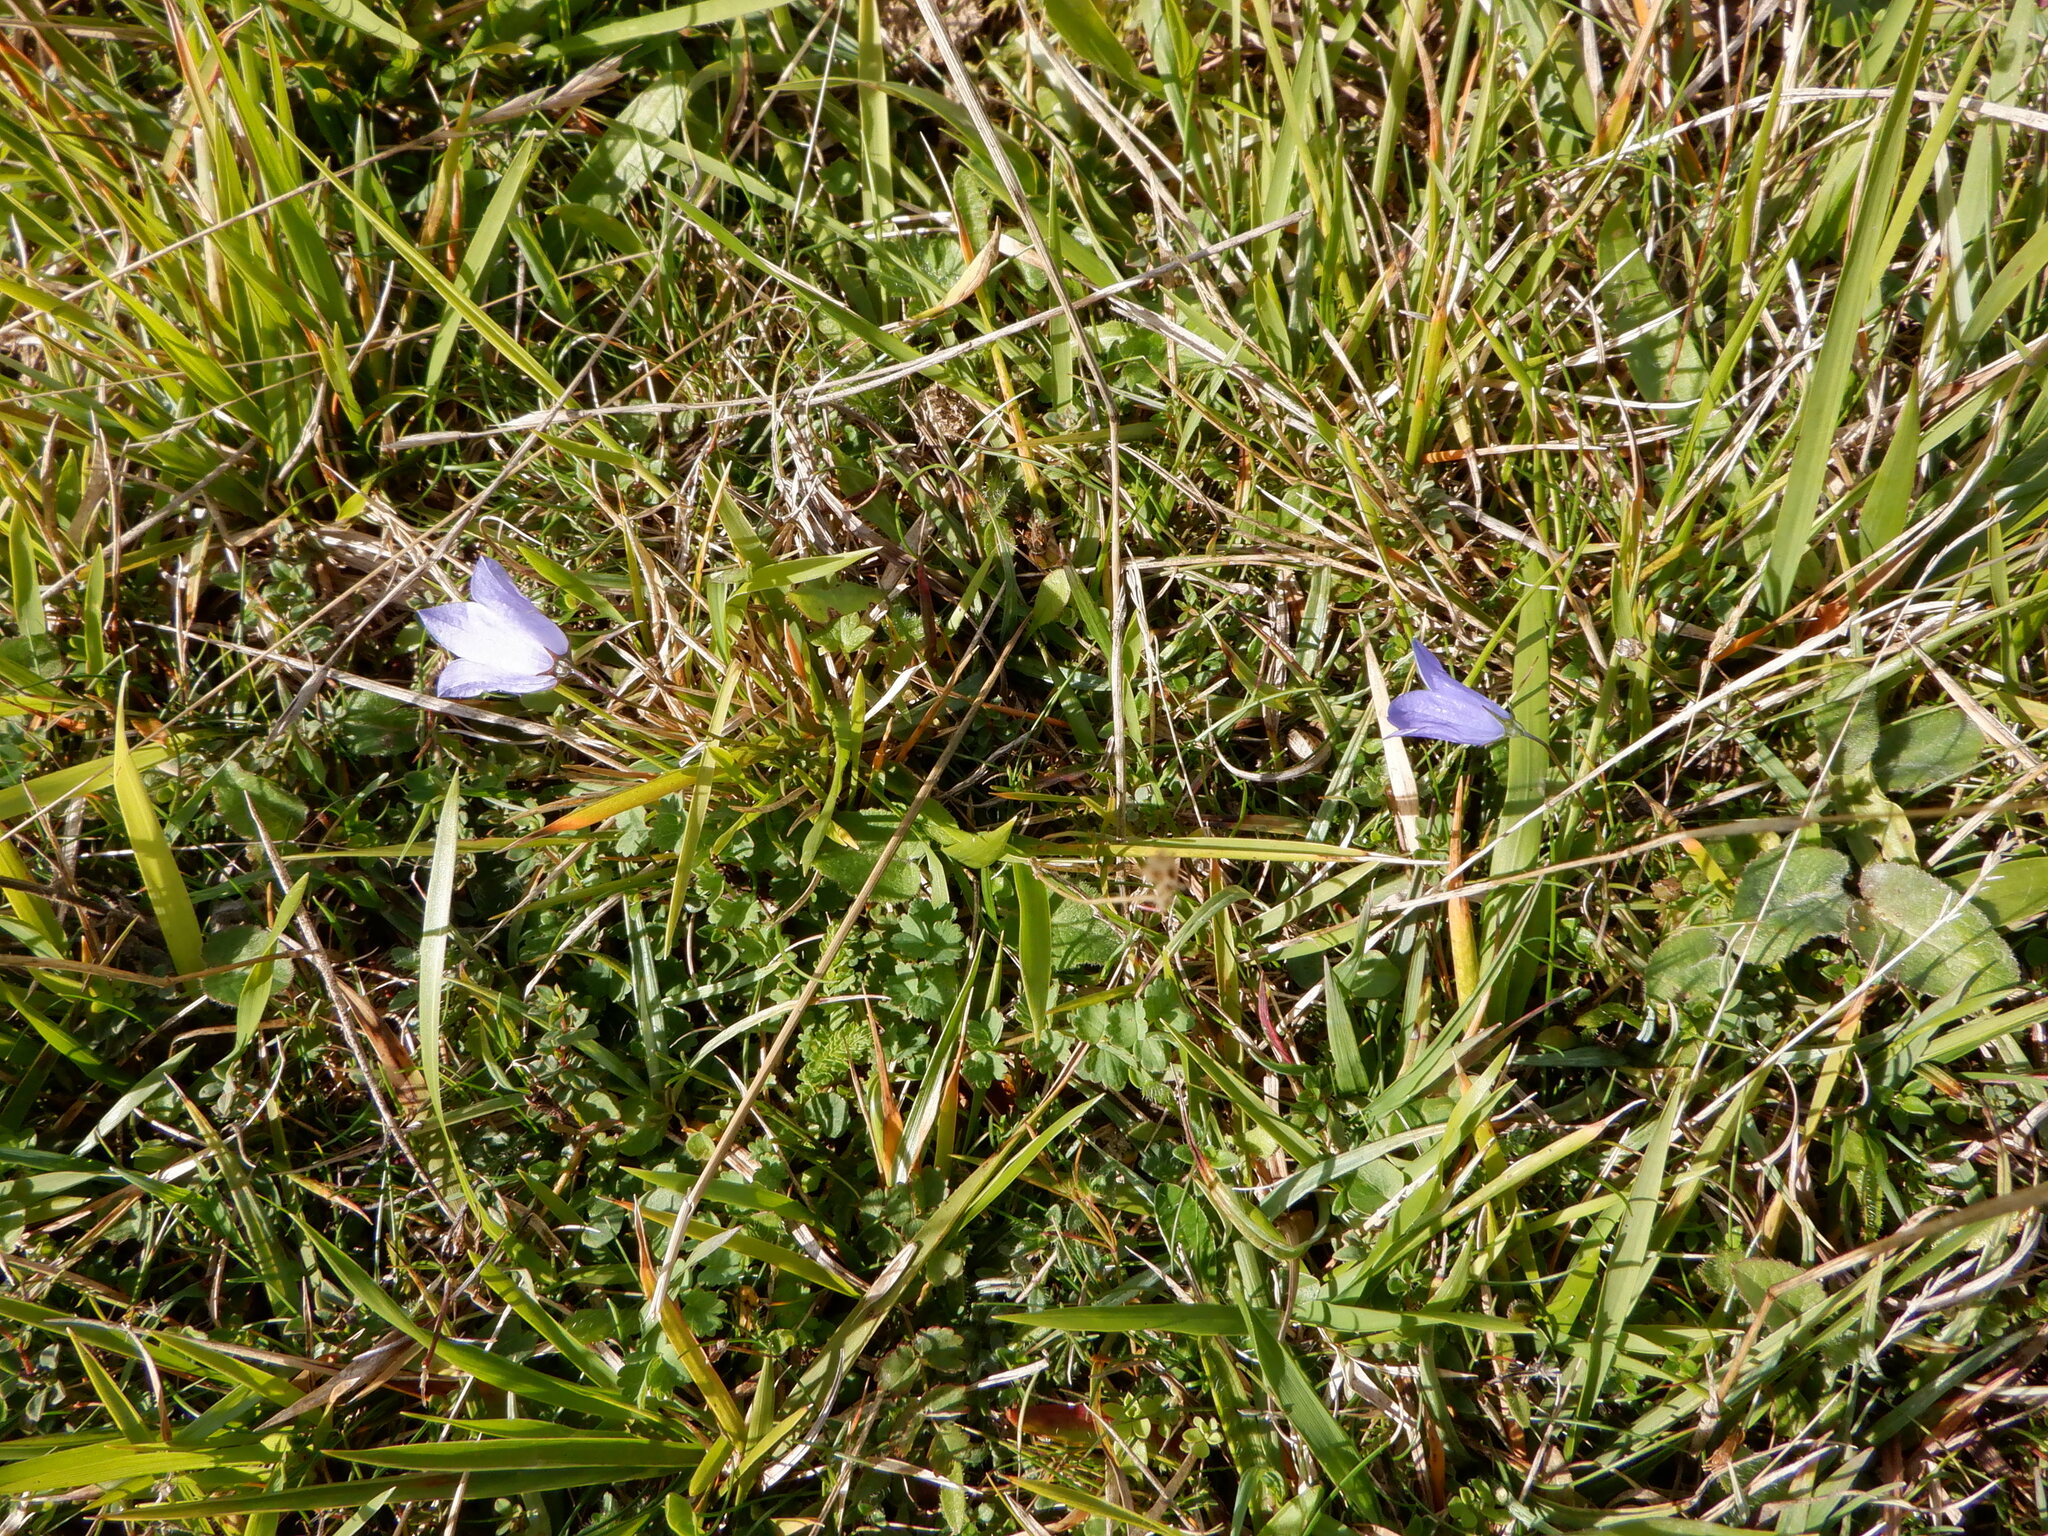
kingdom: Plantae
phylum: Tracheophyta
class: Magnoliopsida
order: Asterales
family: Campanulaceae
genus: Campanula
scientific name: Campanula rotundifolia
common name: Harebell
